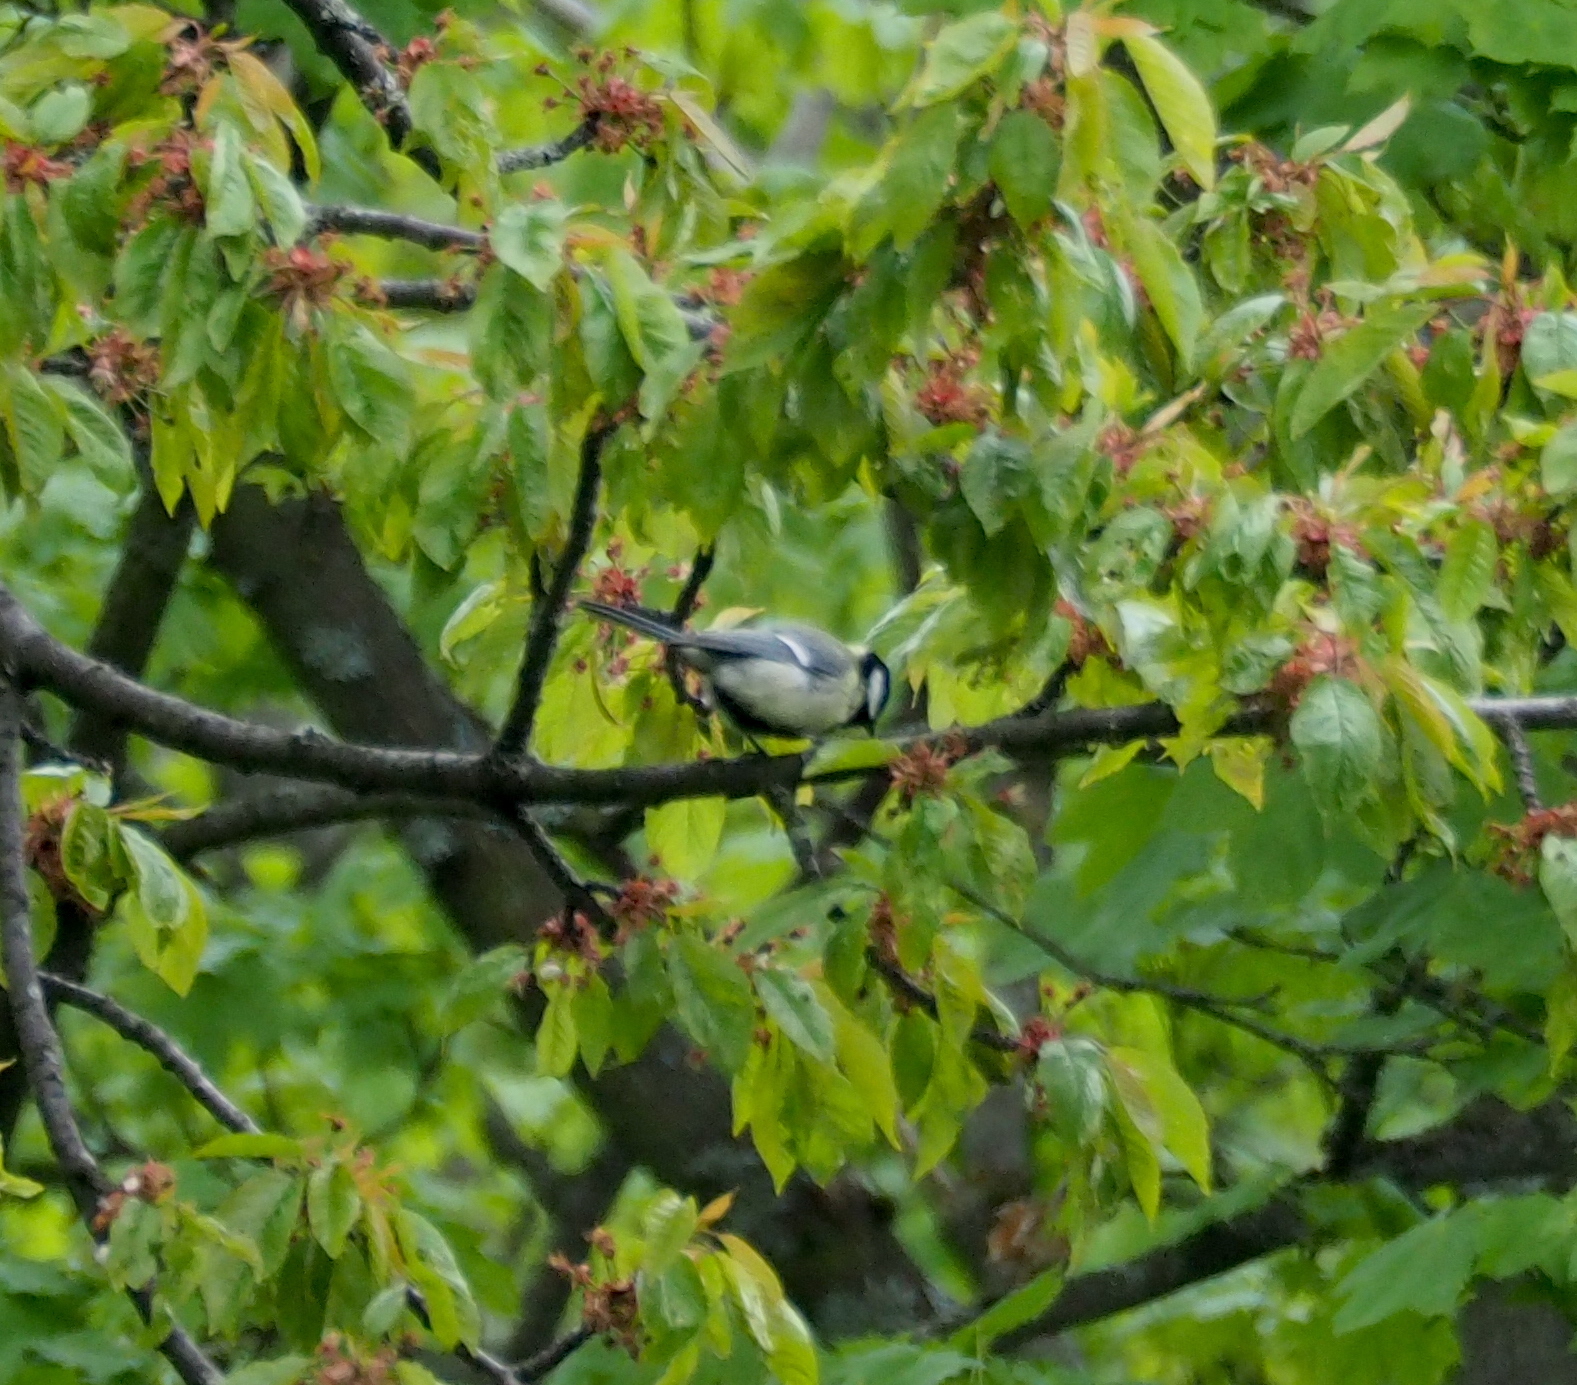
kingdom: Animalia
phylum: Chordata
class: Aves
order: Passeriformes
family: Paridae
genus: Parus
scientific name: Parus major
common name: Great tit
